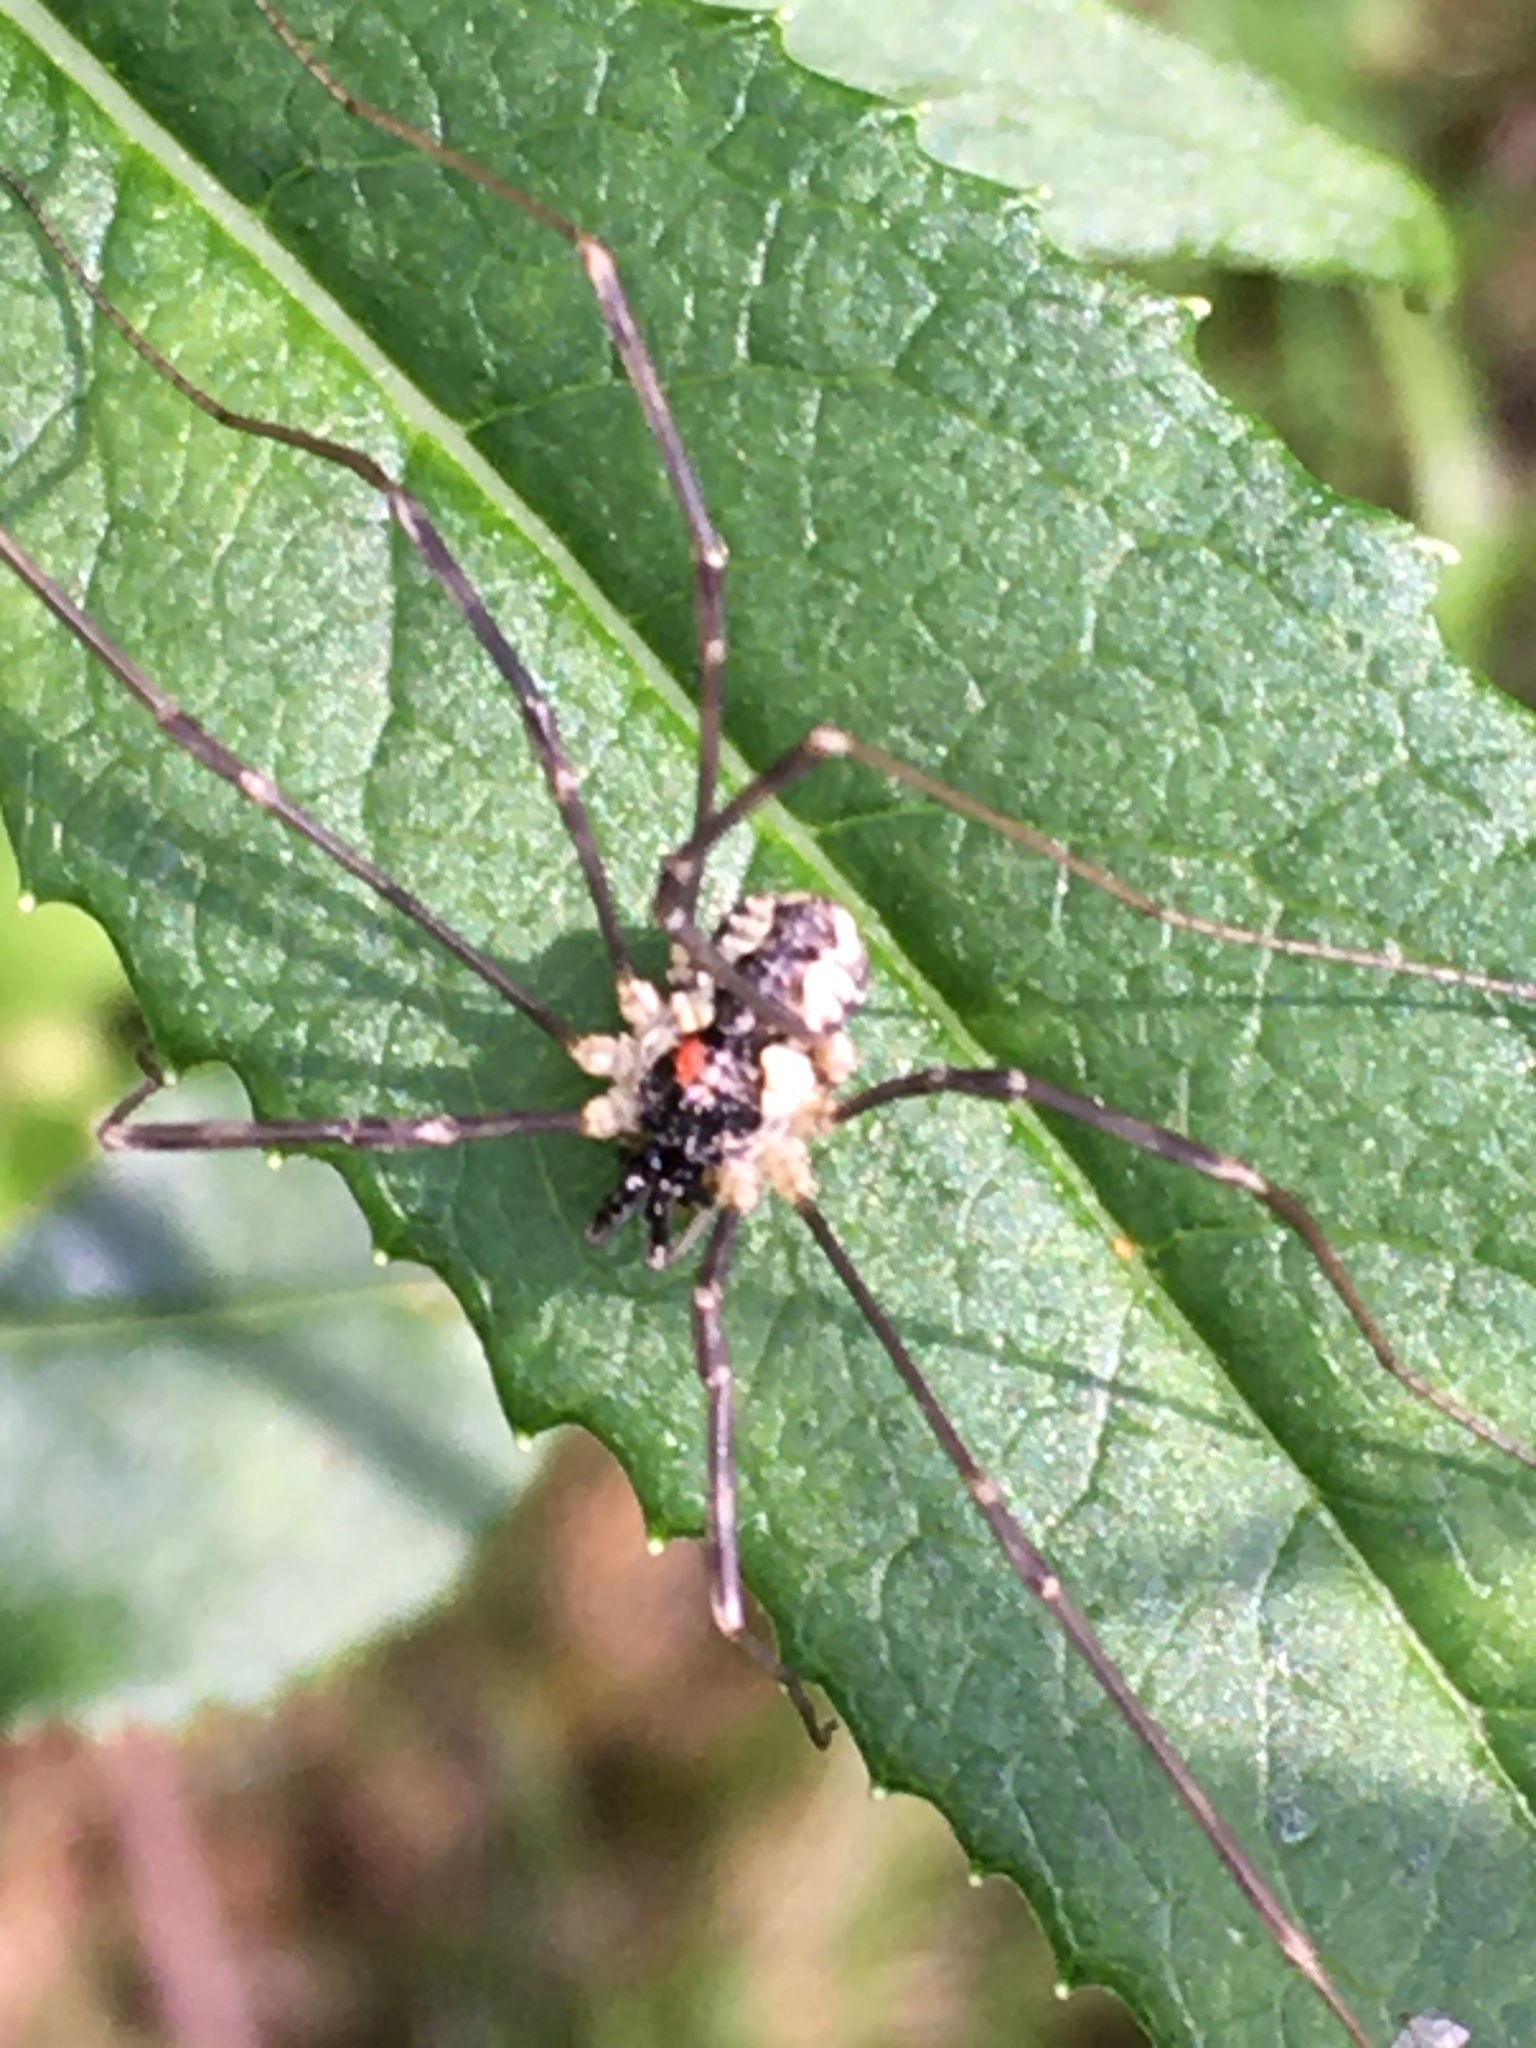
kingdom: Animalia
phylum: Arthropoda
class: Arachnida
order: Opiliones
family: Phalangiidae
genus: Mitopus
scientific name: Mitopus morio
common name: Saddleback harvestman
